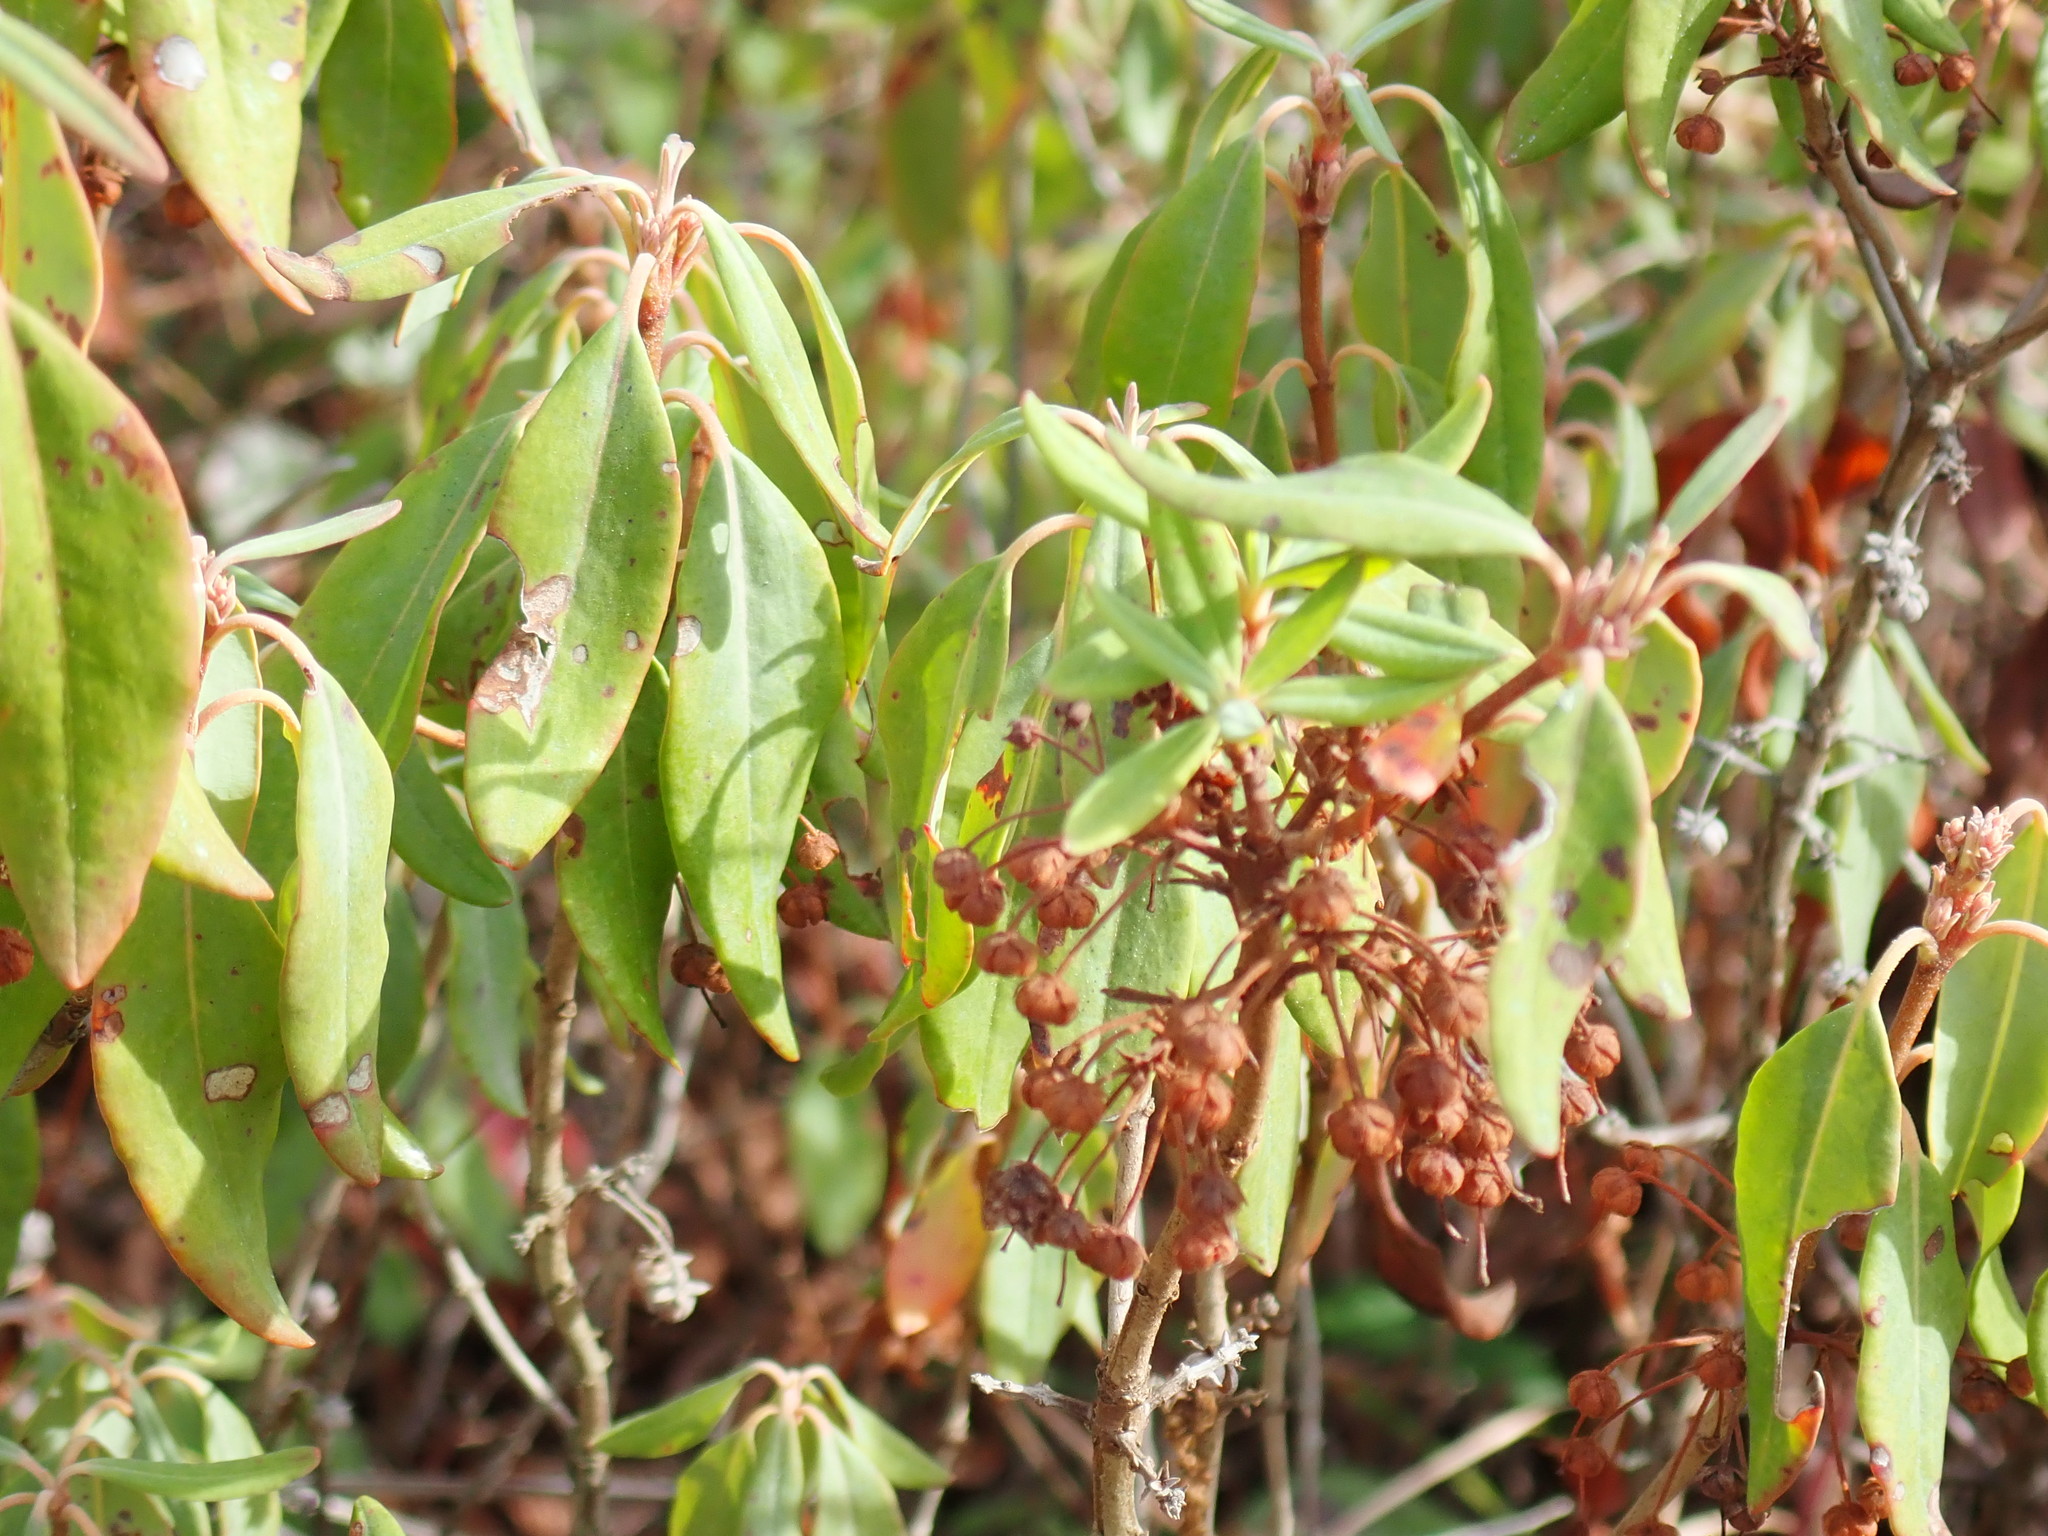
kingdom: Plantae
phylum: Tracheophyta
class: Magnoliopsida
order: Ericales
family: Ericaceae
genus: Kalmia
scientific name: Kalmia angustifolia
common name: Sheep-laurel
